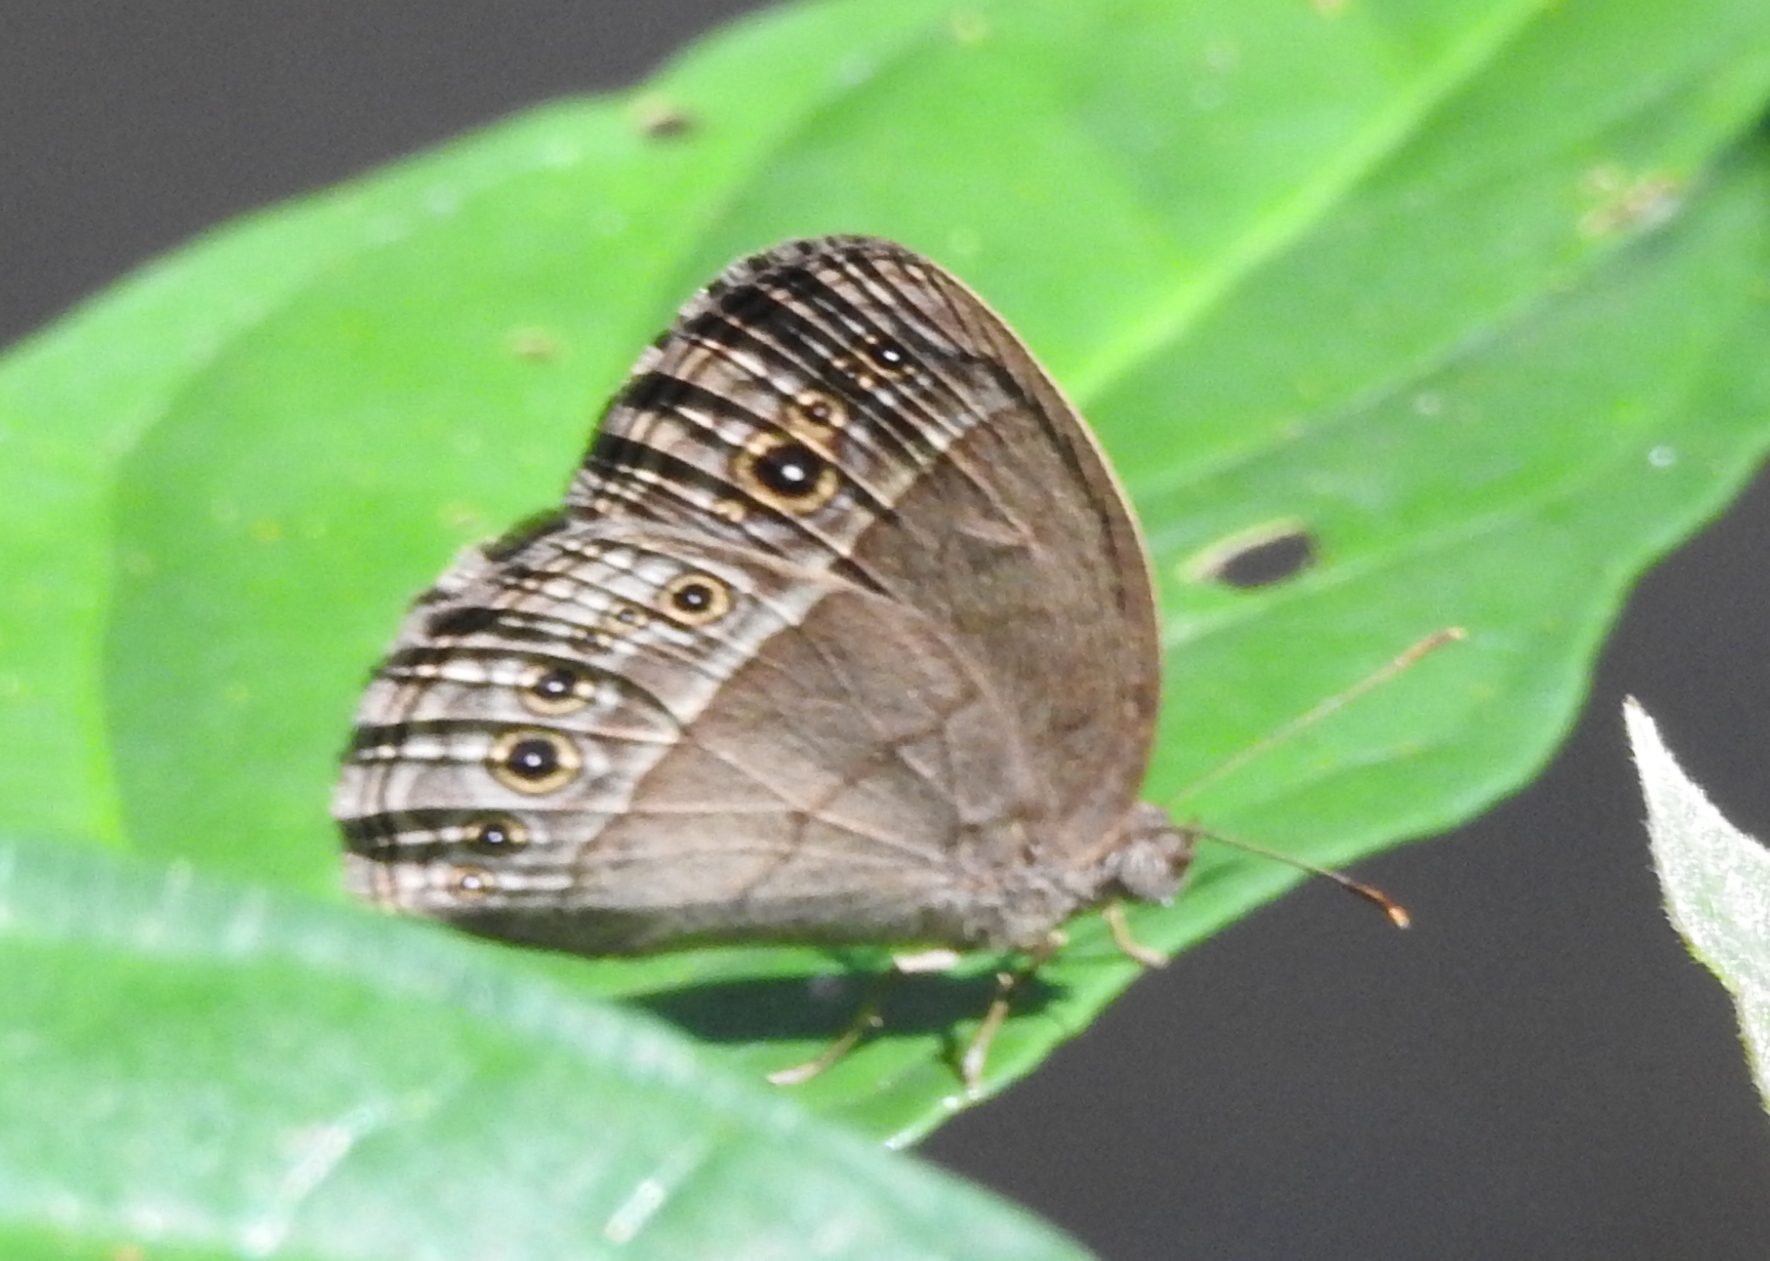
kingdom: Animalia
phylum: Arthropoda
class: Insecta
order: Lepidoptera
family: Nymphalidae
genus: Mycalesis
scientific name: Mycalesis perseoides
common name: Burmese bushbrown
